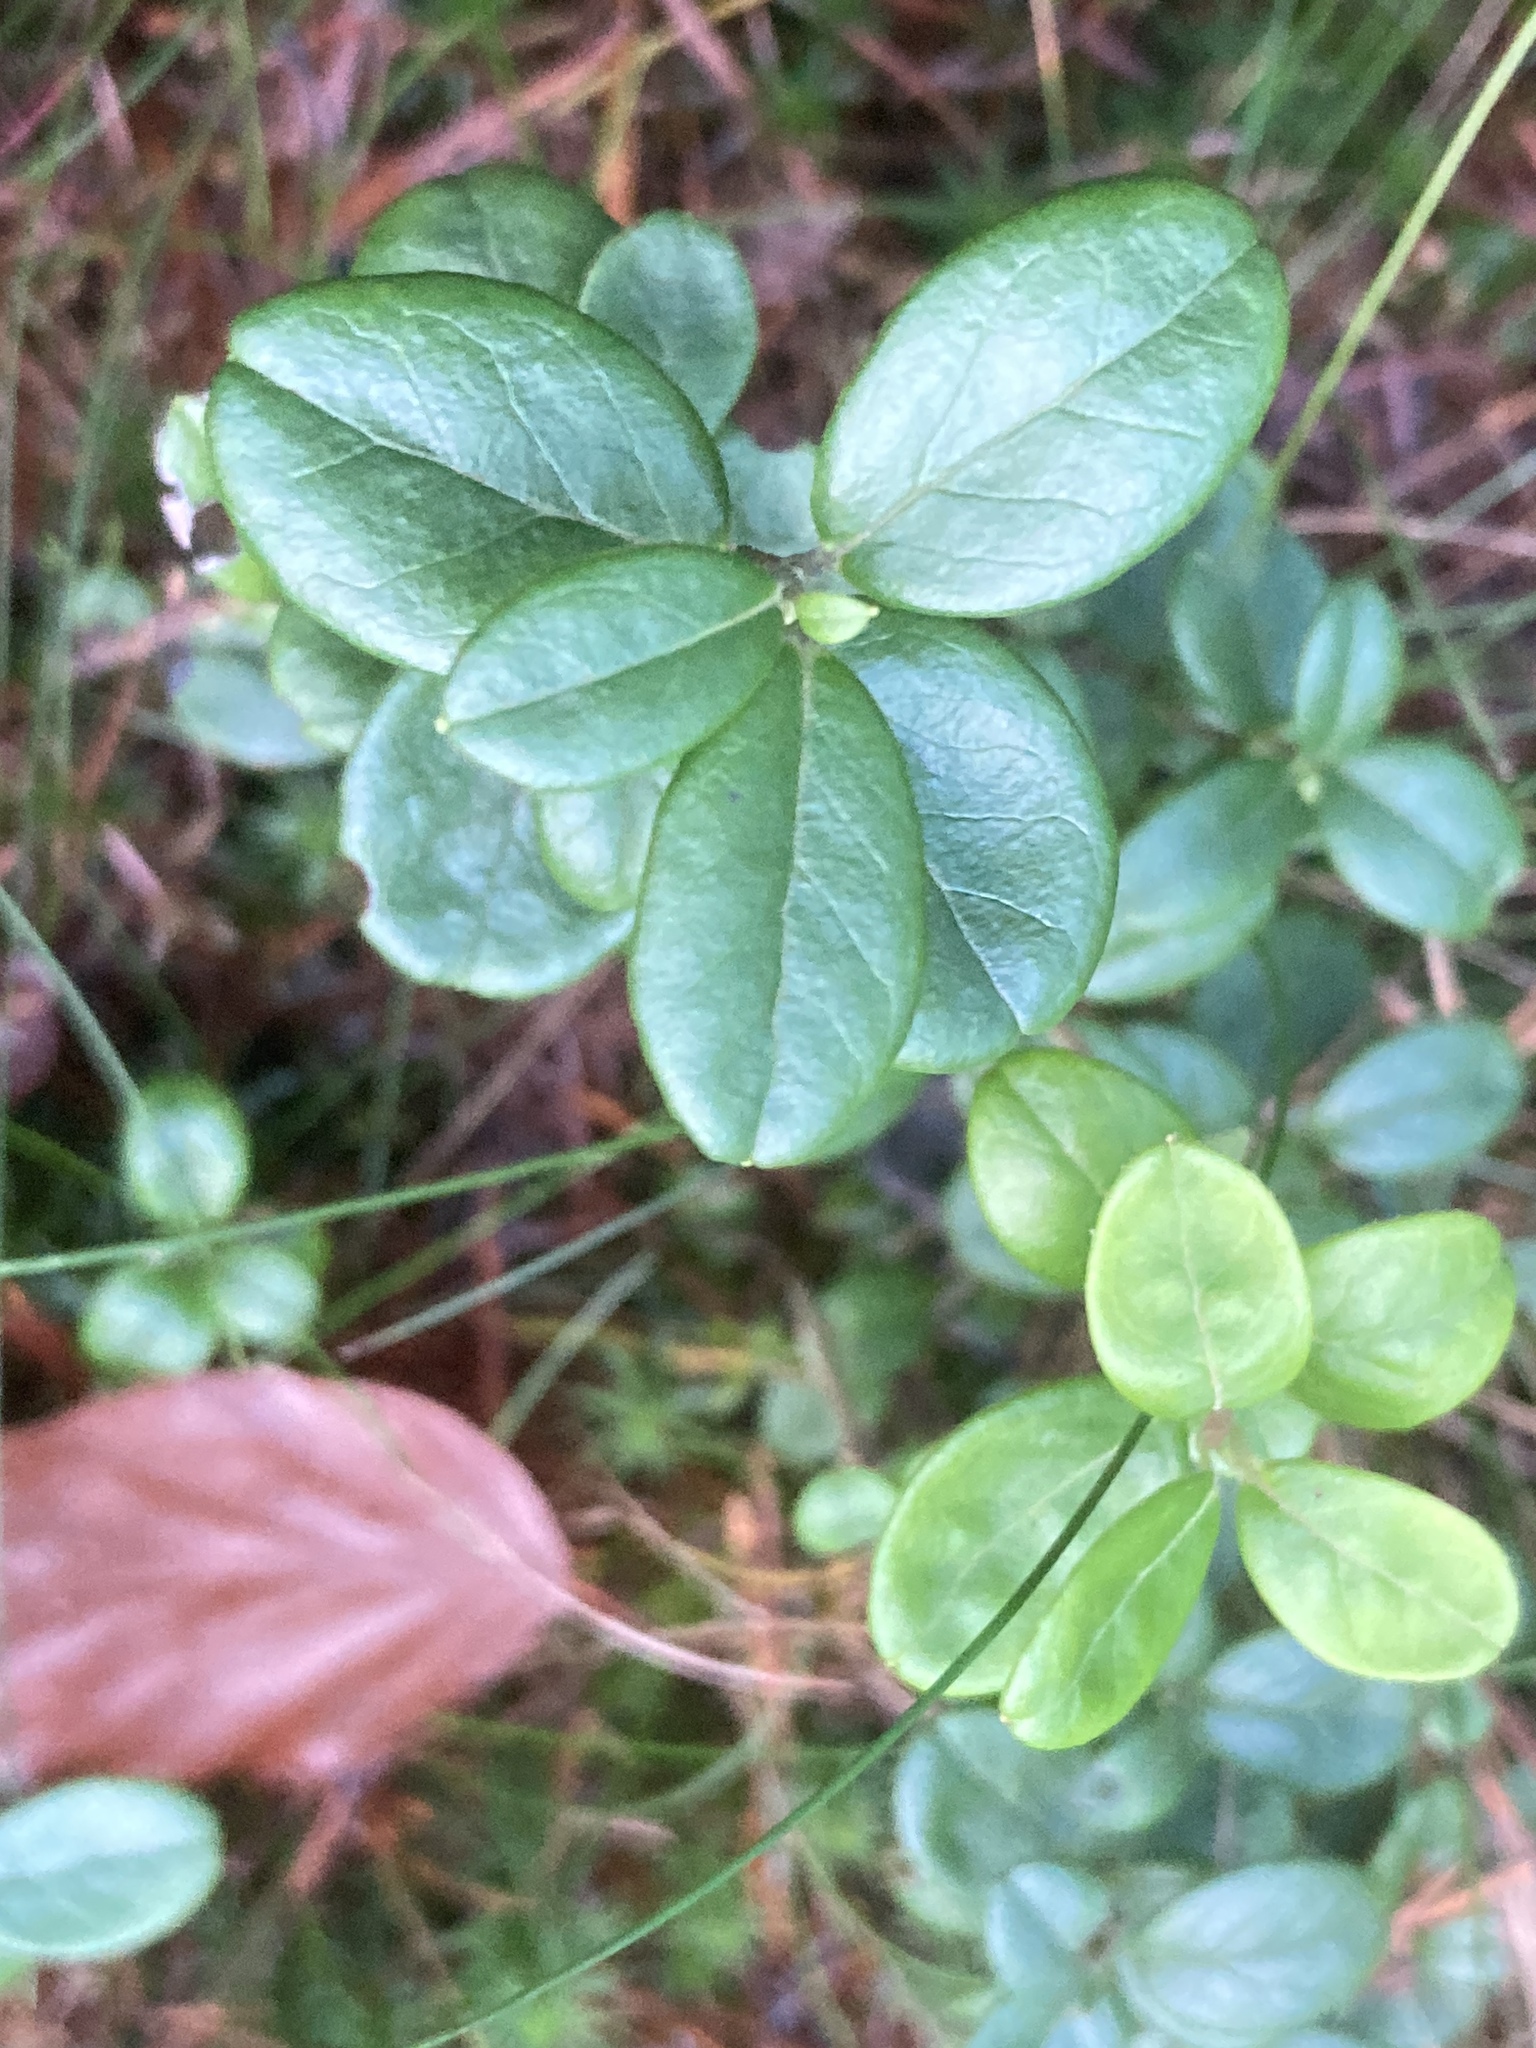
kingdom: Plantae
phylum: Tracheophyta
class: Magnoliopsida
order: Ericales
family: Ericaceae
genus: Vaccinium
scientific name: Vaccinium vitis-idaea
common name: Cowberry
